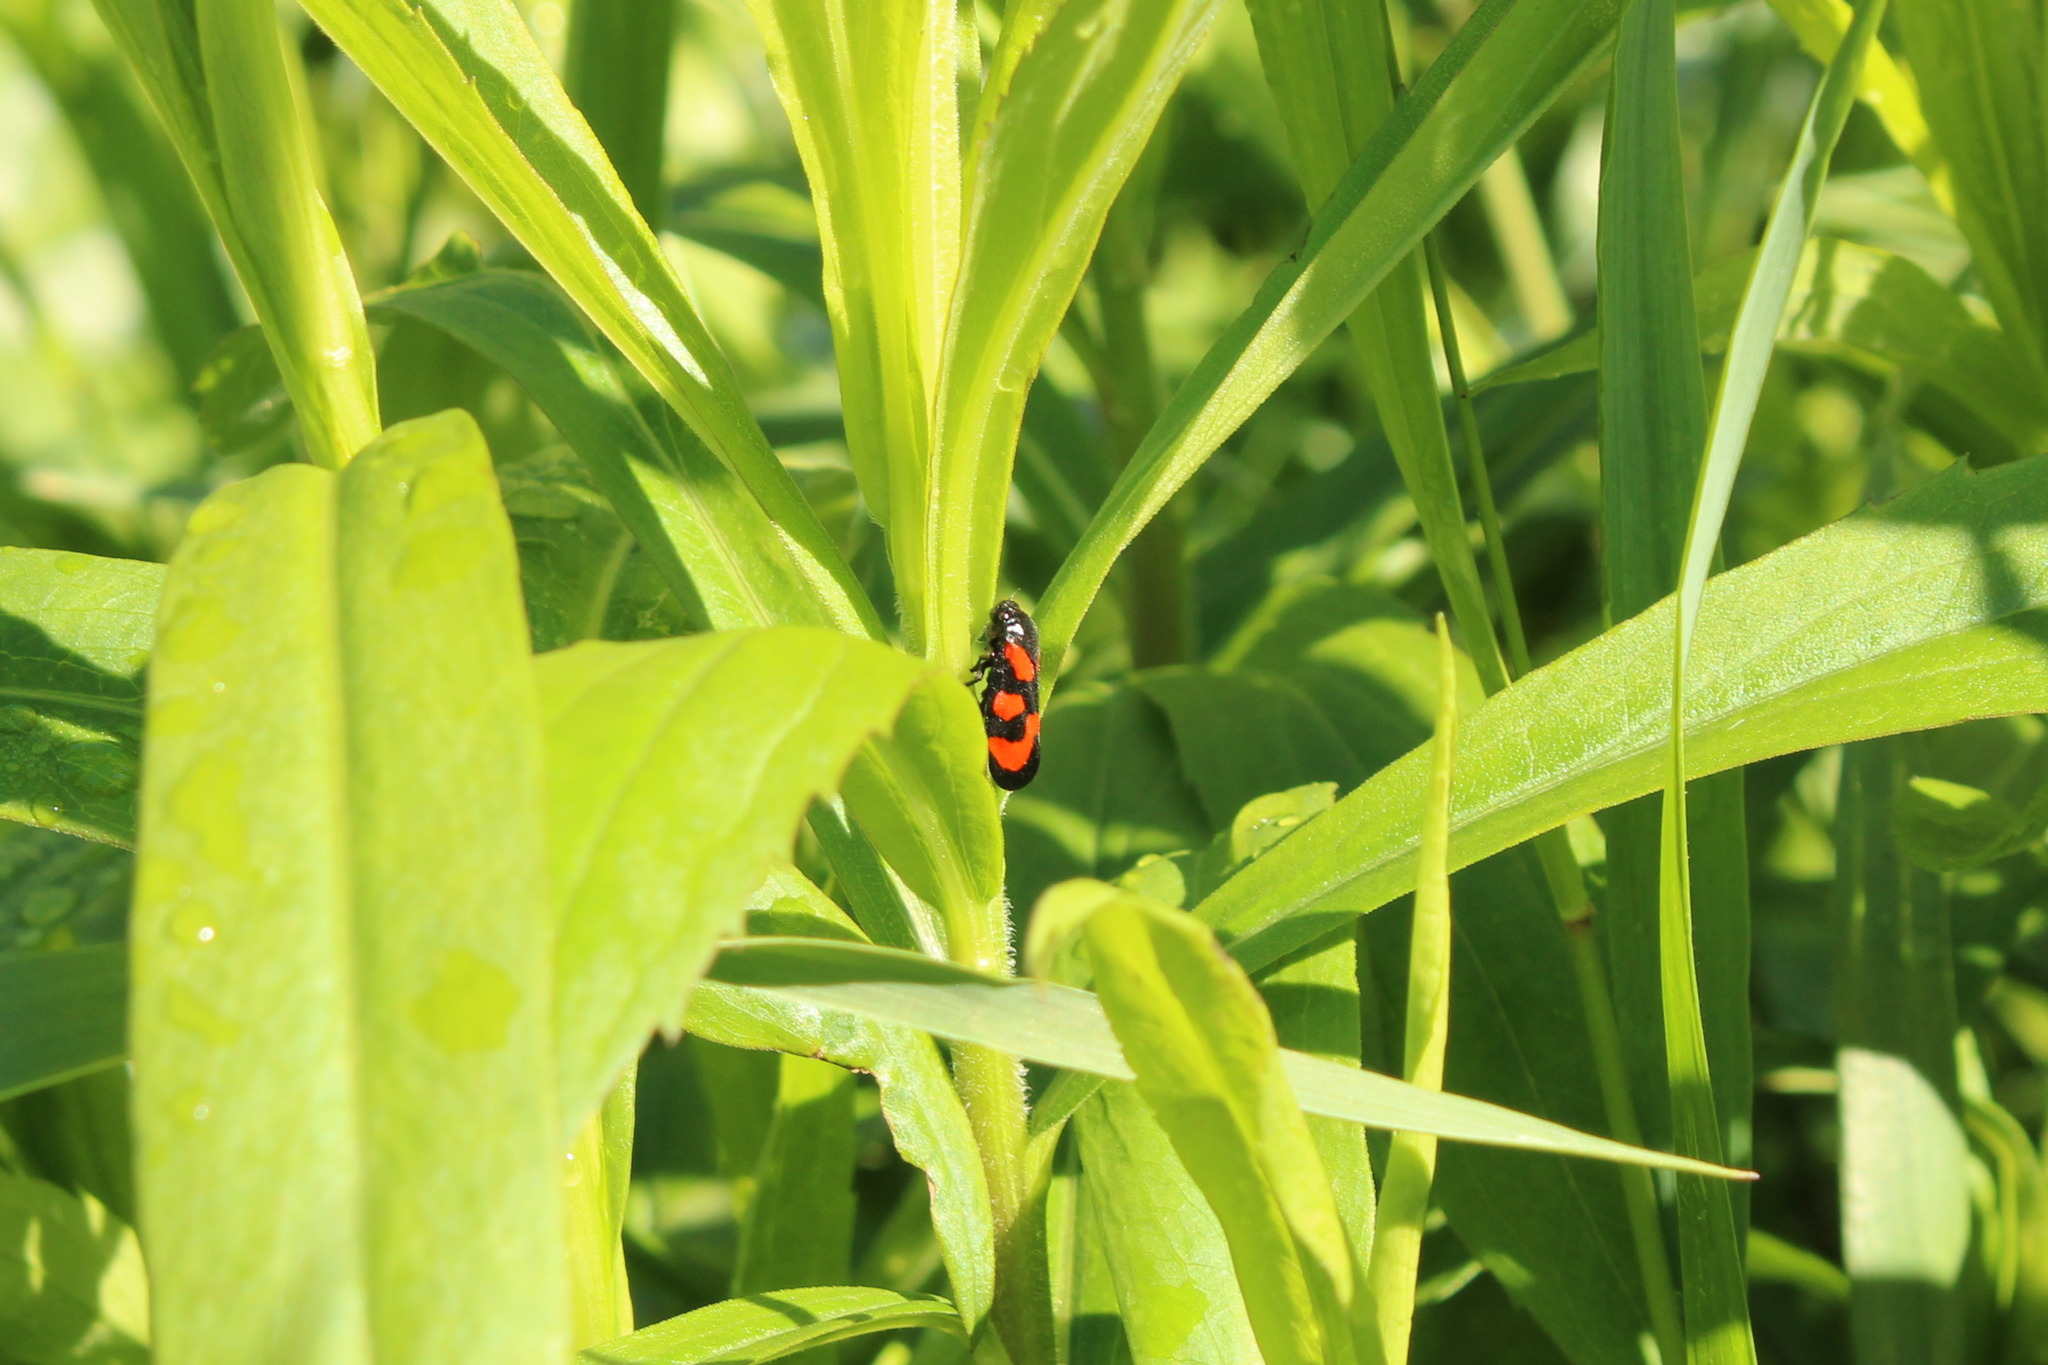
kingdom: Animalia
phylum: Arthropoda
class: Insecta
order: Hemiptera
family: Cercopidae
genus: Cercopis
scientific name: Cercopis vulnerata
